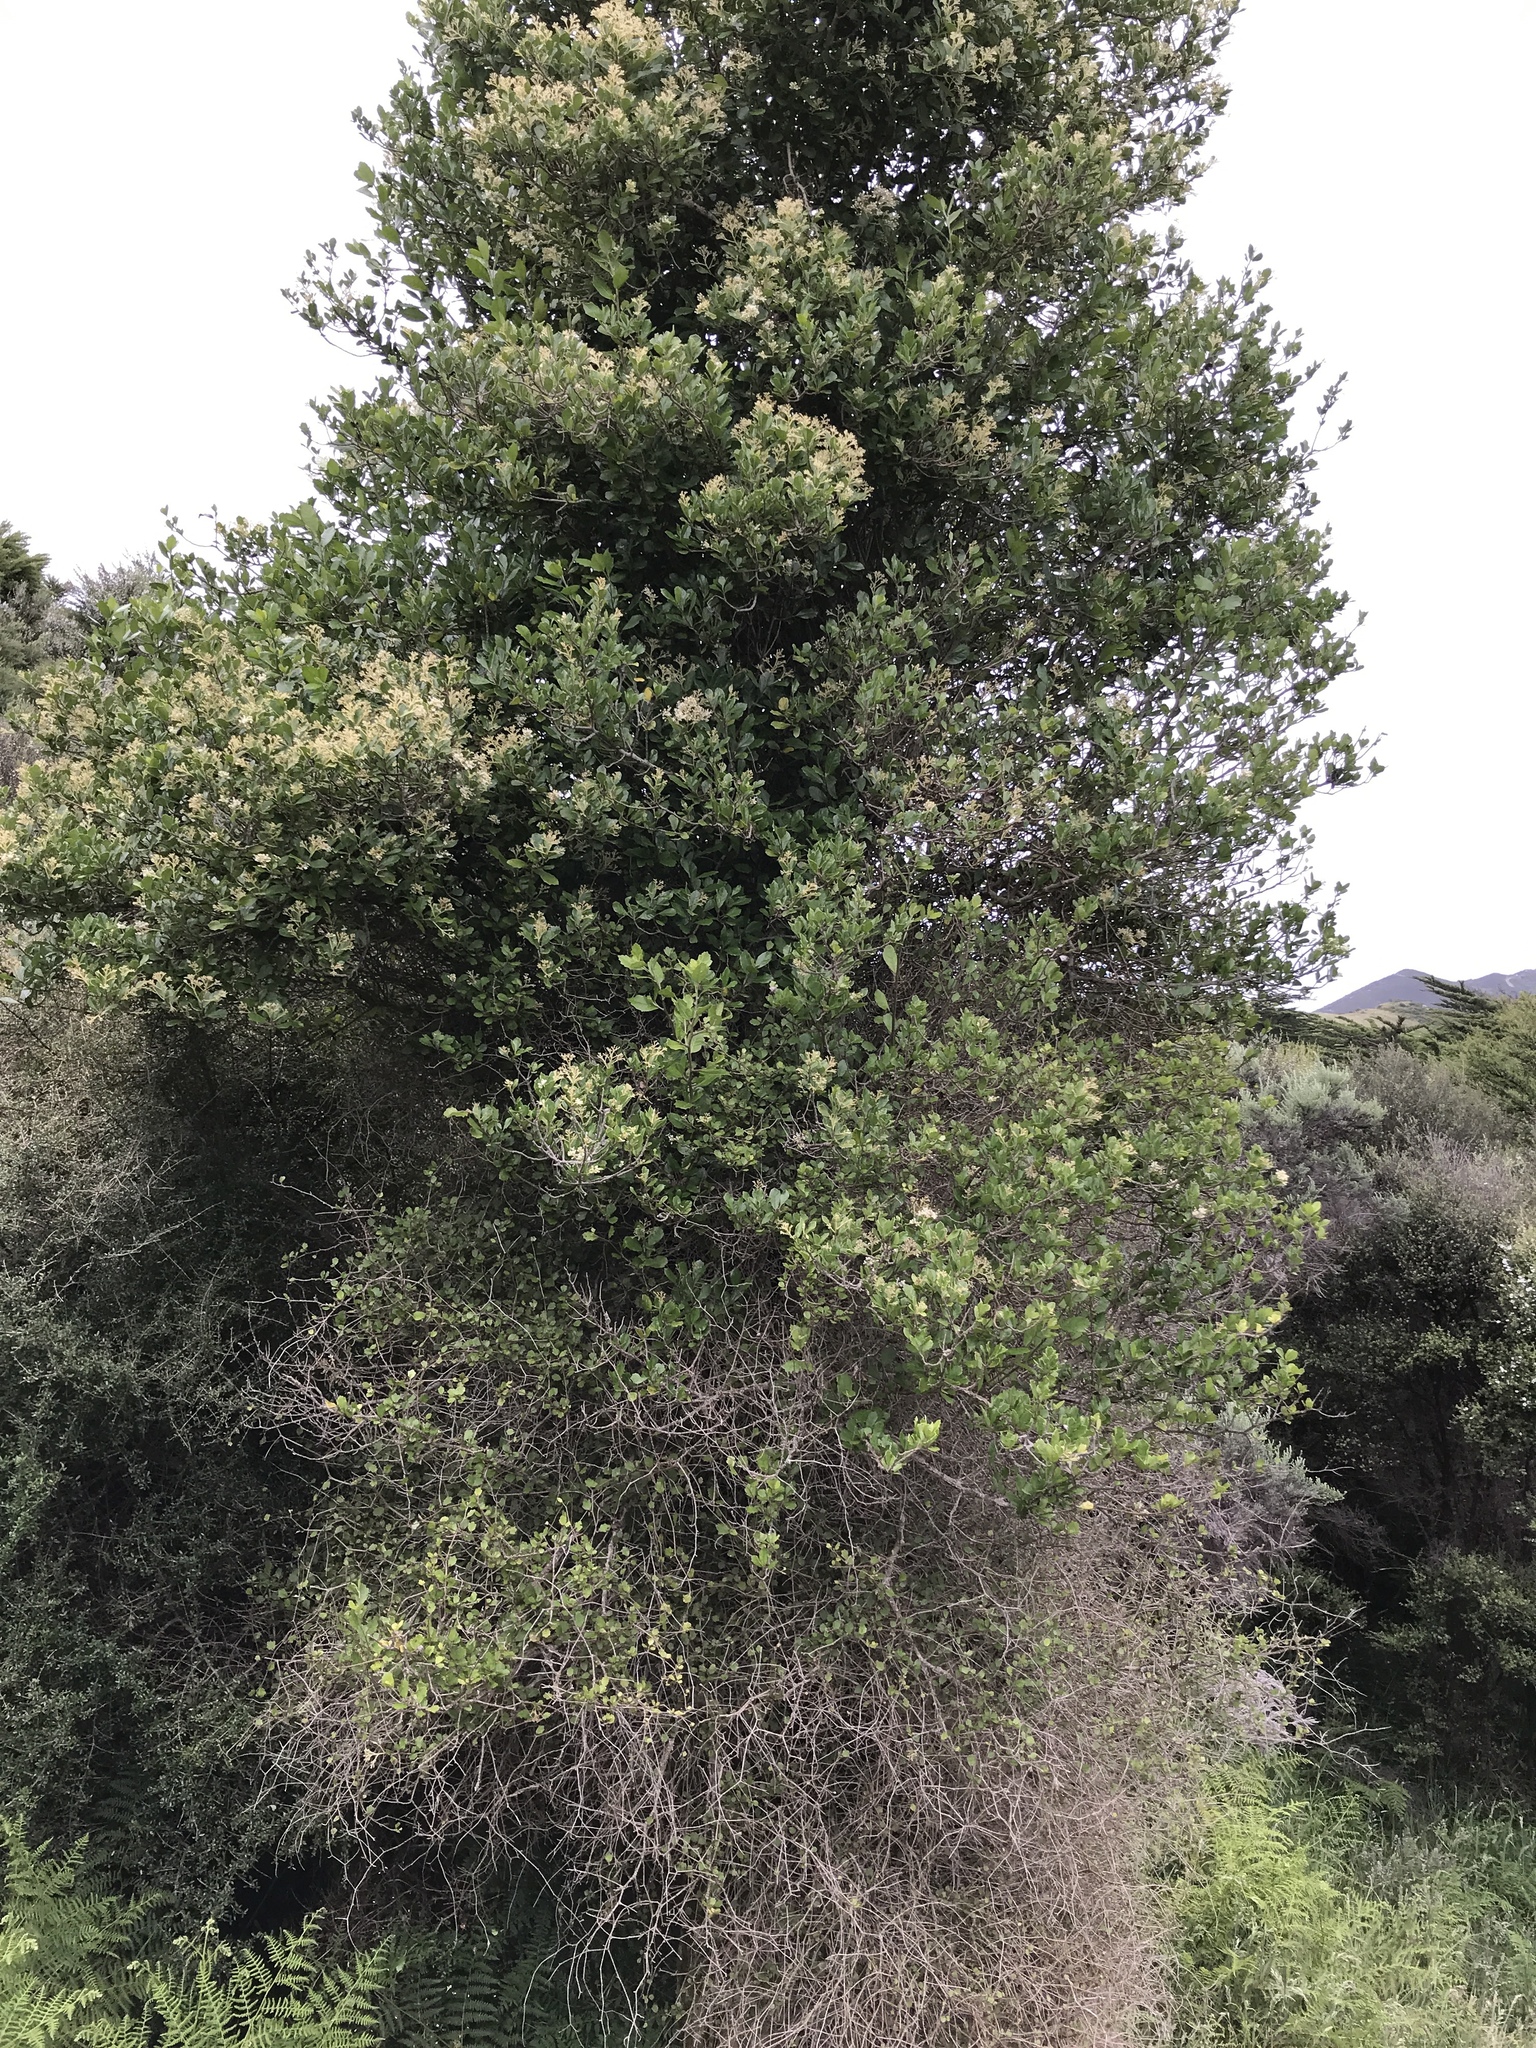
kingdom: Plantae
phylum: Tracheophyta
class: Magnoliopsida
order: Apiales
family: Pennantiaceae
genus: Pennantia
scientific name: Pennantia corymbosa
